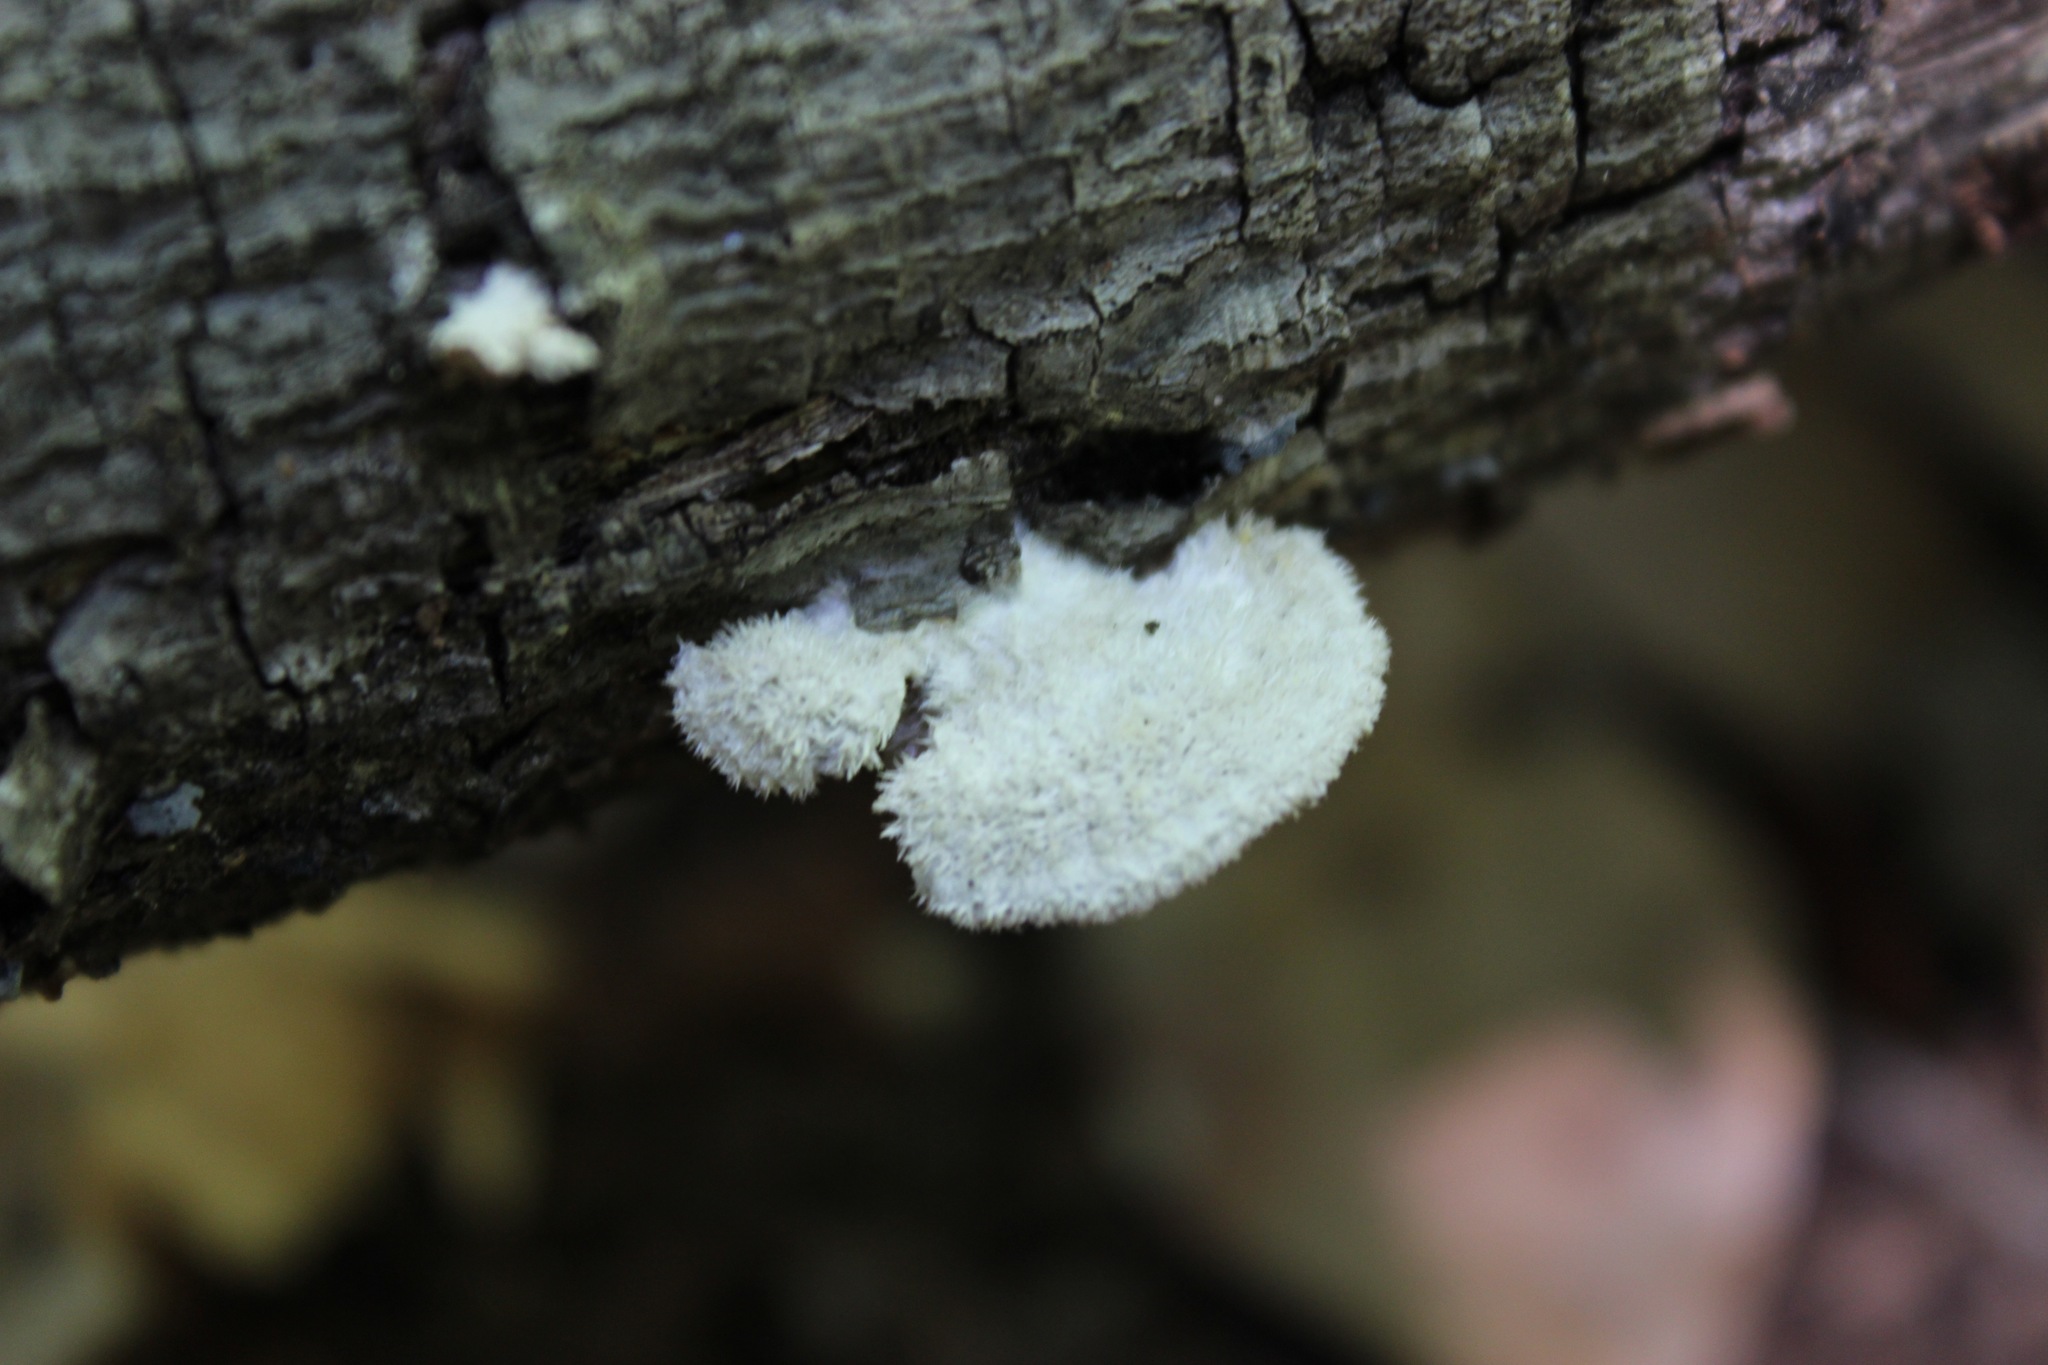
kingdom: Fungi
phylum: Basidiomycota
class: Agaricomycetes
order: Agaricales
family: Schizophyllaceae
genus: Schizophyllum
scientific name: Schizophyllum commune
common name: Common porecrust
